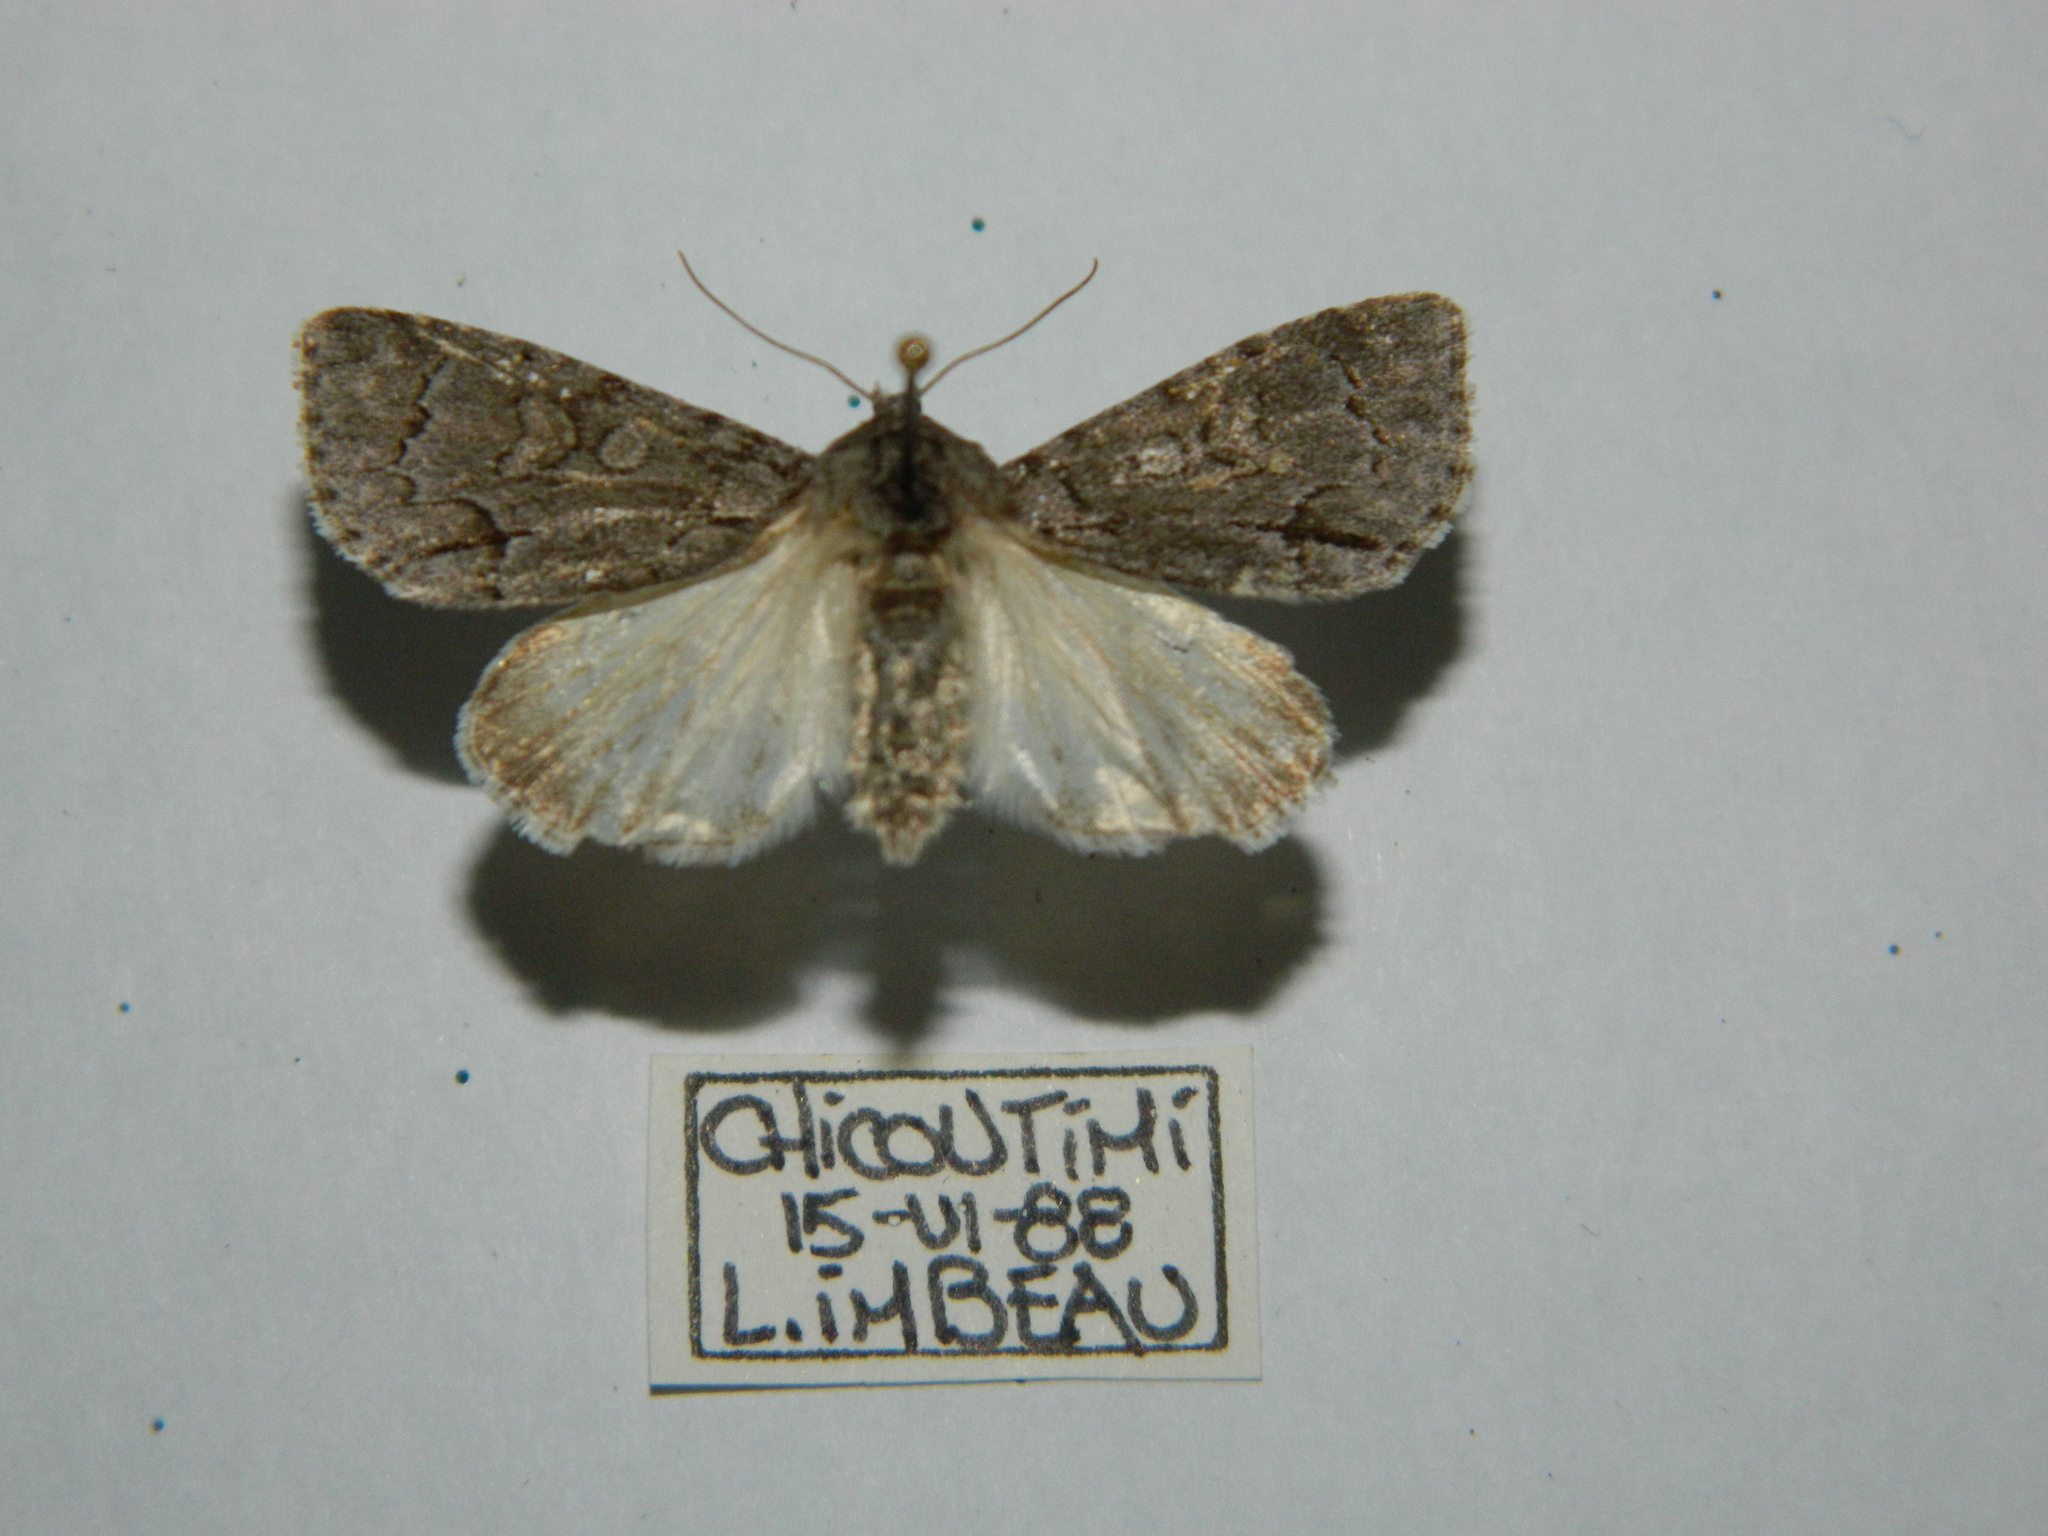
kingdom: Animalia
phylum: Arthropoda
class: Insecta
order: Lepidoptera
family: Noctuidae
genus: Acronicta
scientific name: Acronicta grisea
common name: Gray dagger
